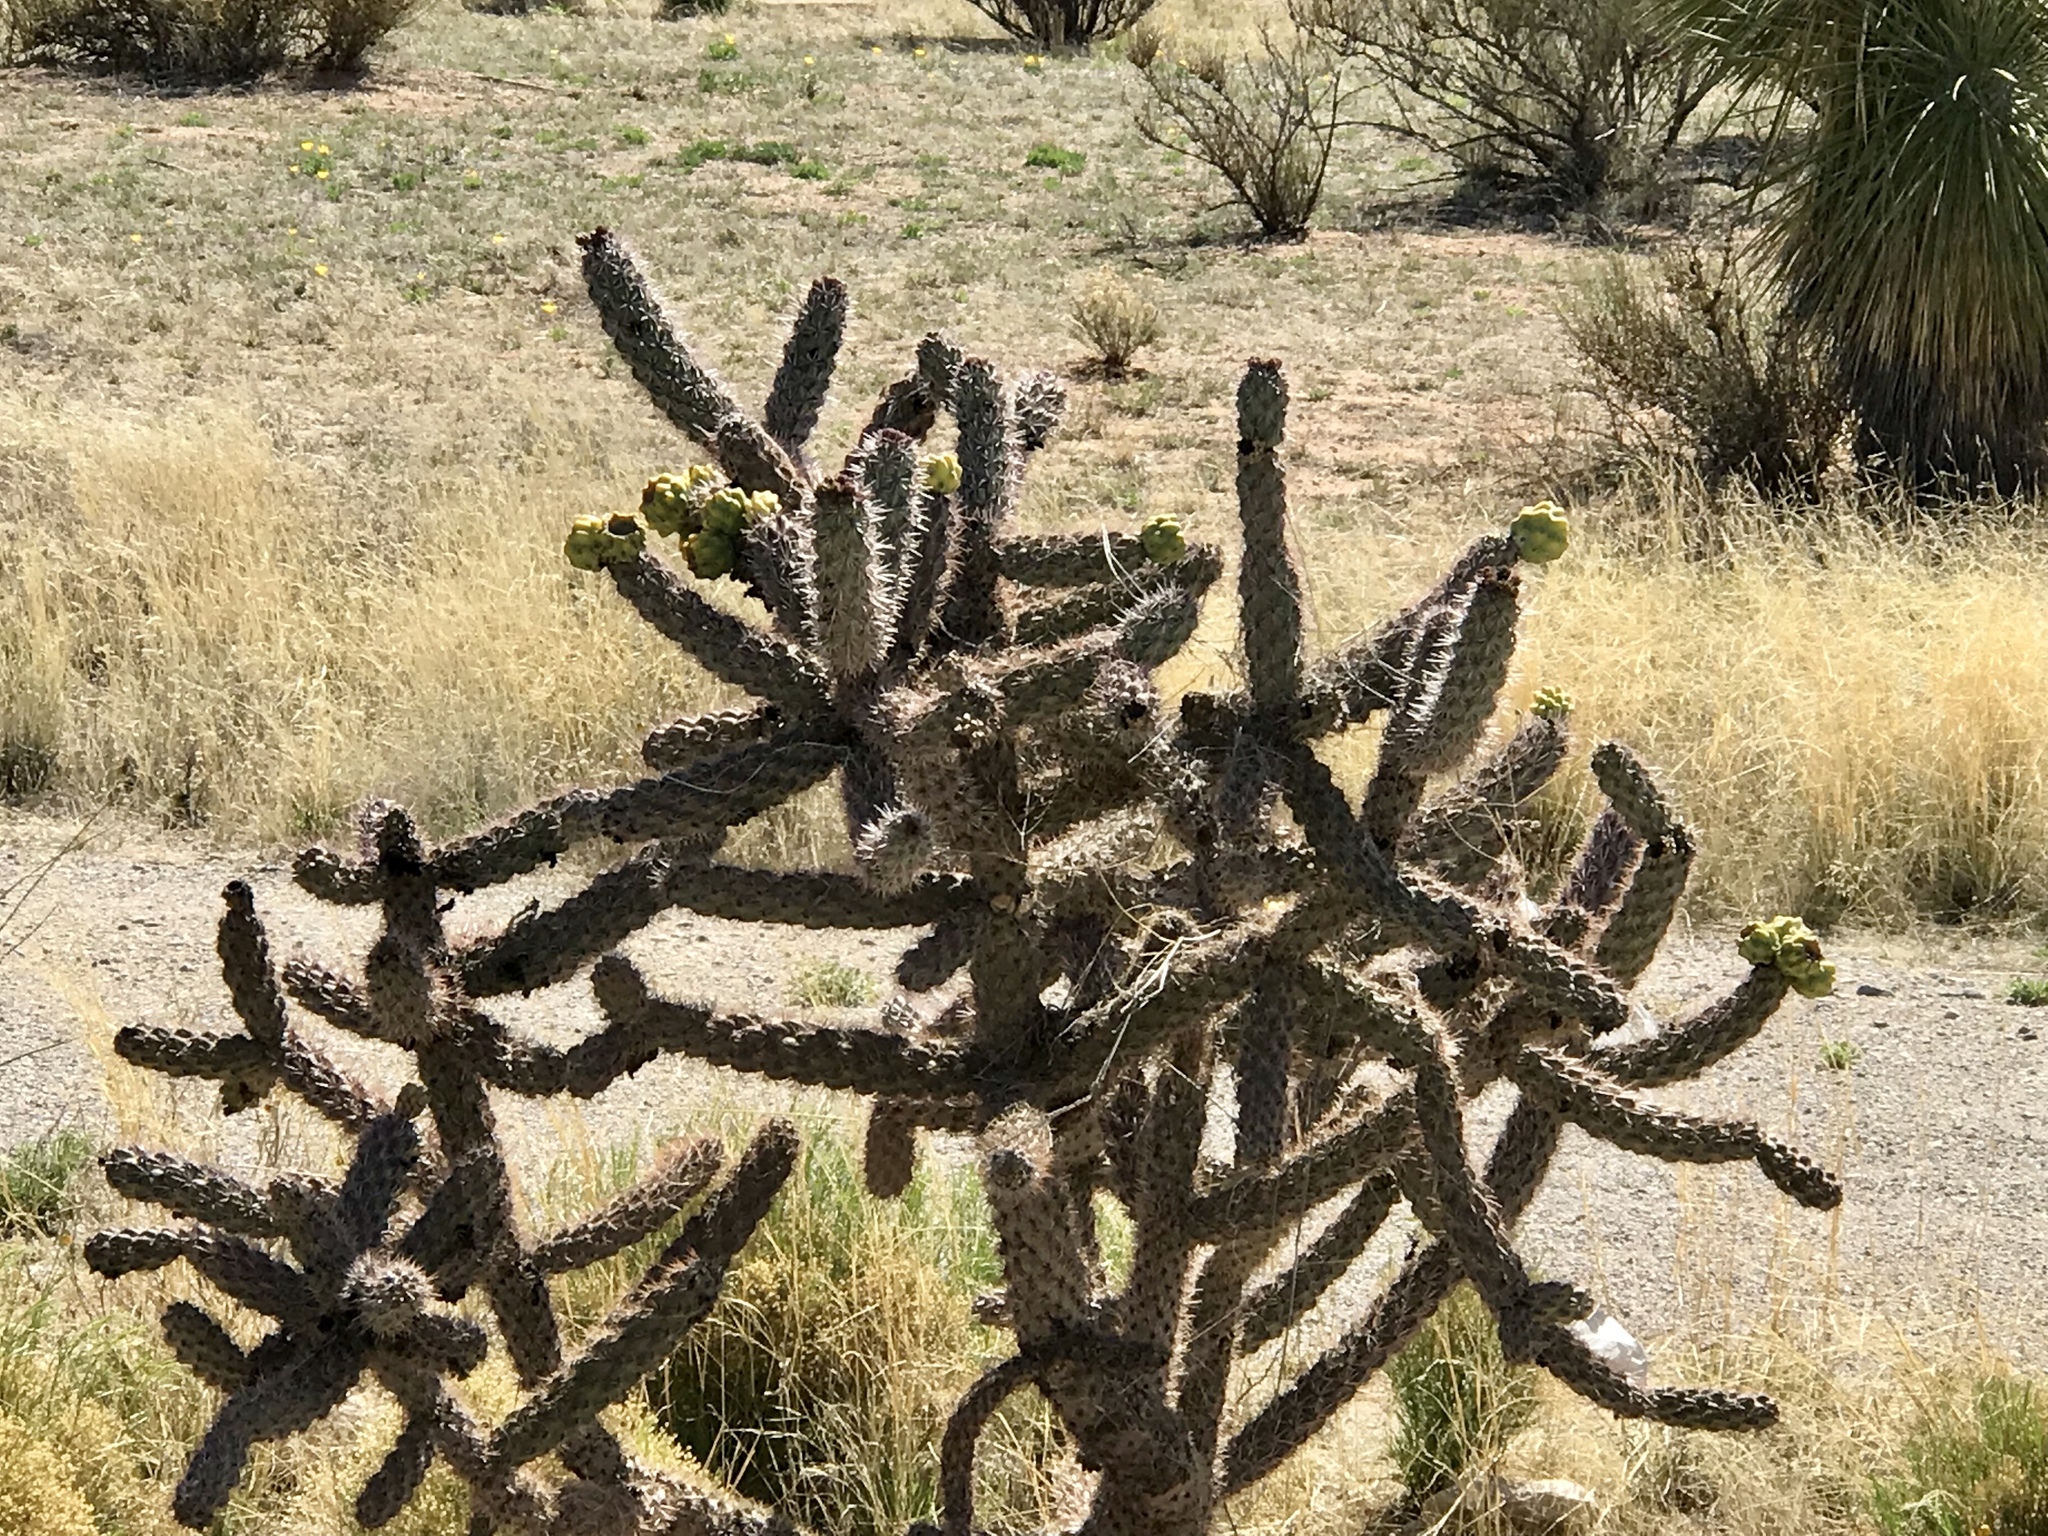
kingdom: Plantae
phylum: Tracheophyta
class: Magnoliopsida
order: Caryophyllales
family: Cactaceae
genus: Cylindropuntia
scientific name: Cylindropuntia imbricata
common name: Candelabrum cactus
